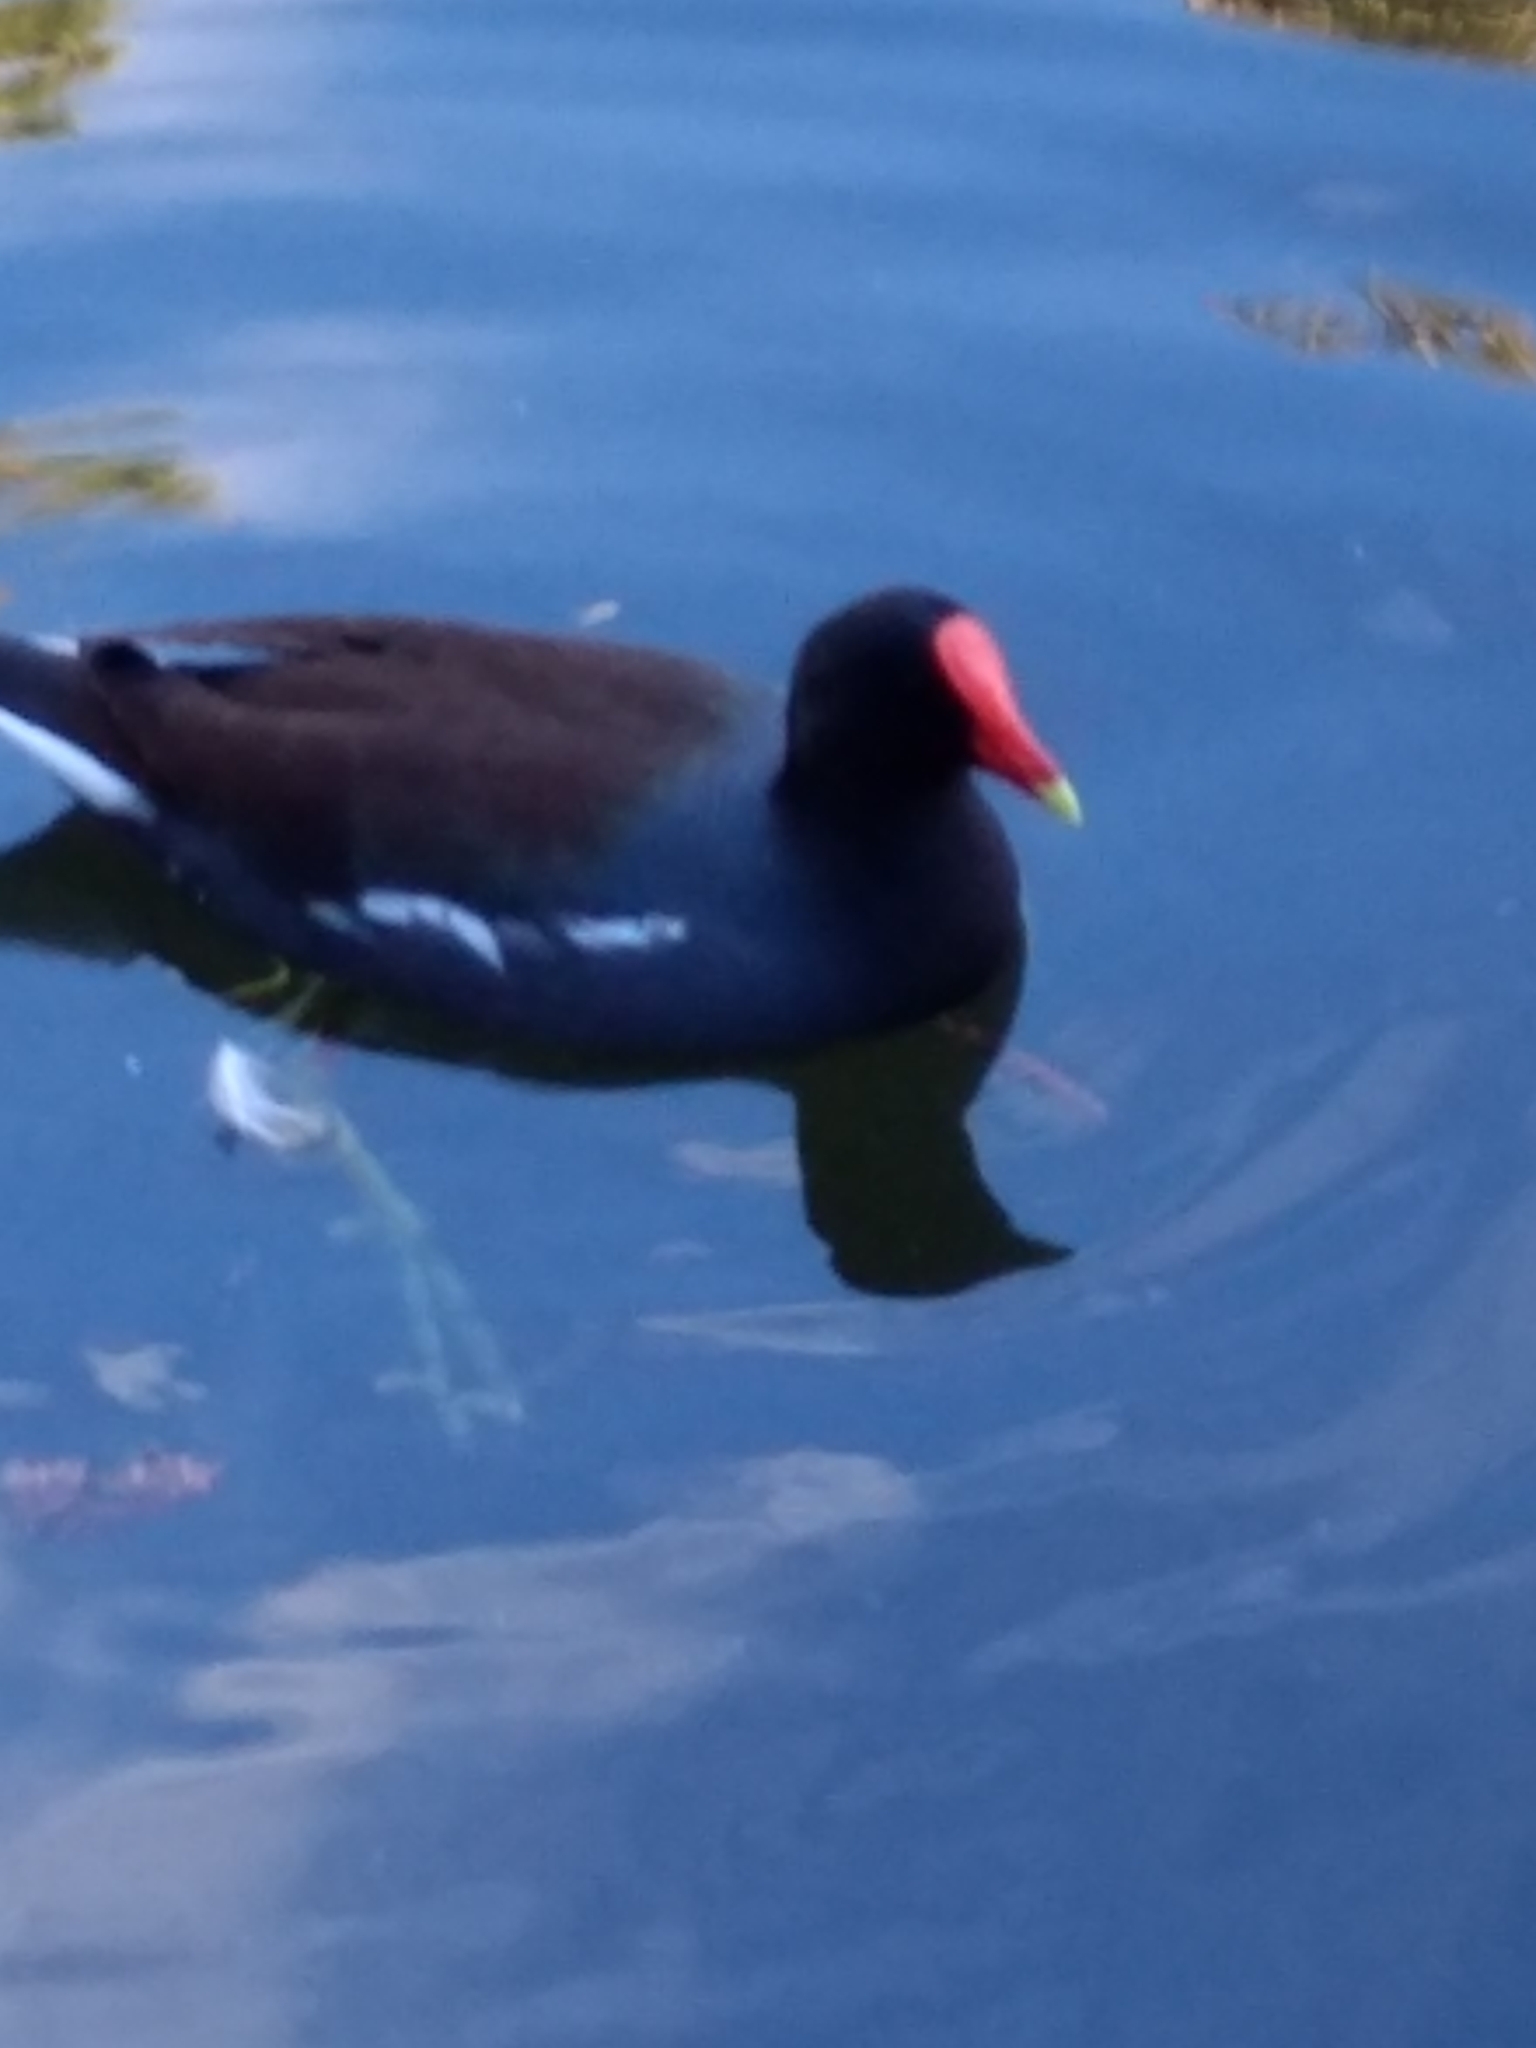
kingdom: Animalia
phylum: Chordata
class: Aves
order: Gruiformes
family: Rallidae
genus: Gallinula
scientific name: Gallinula chloropus
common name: Common moorhen
